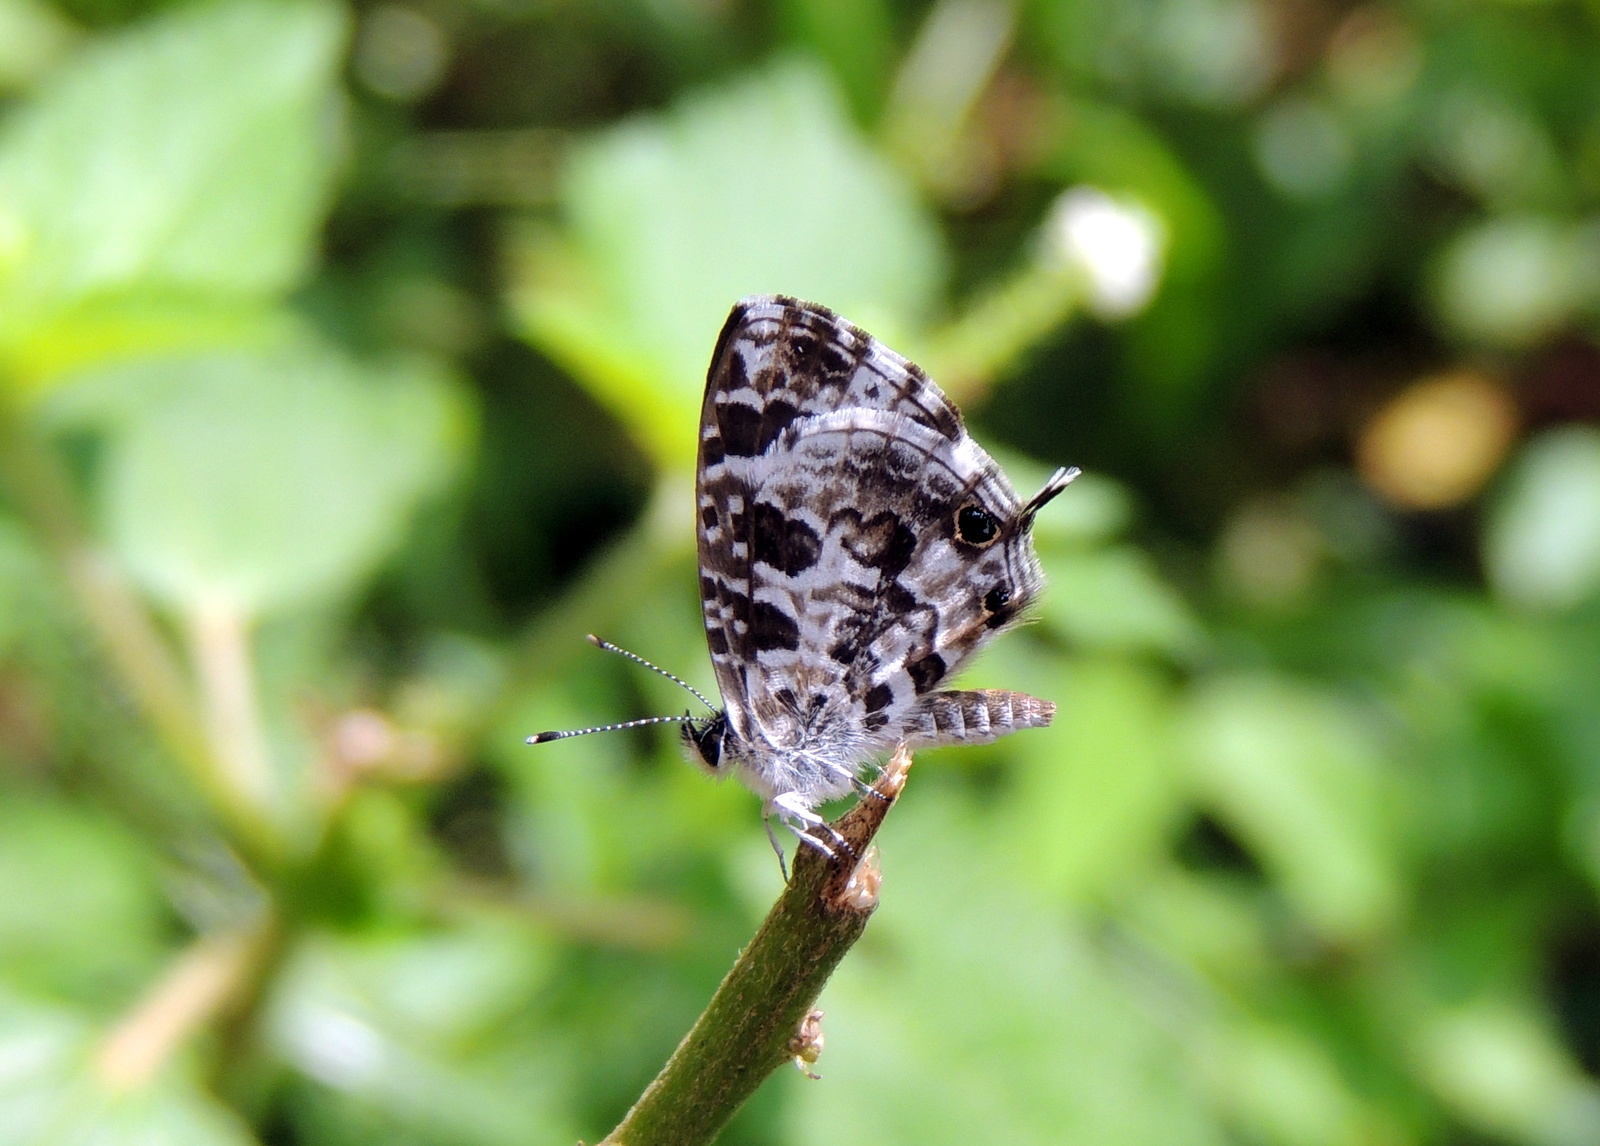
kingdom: Animalia
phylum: Arthropoda
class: Insecta
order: Lepidoptera
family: Lycaenidae
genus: Cacyreus
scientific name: Cacyreus lingeus
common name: Bush bronze
